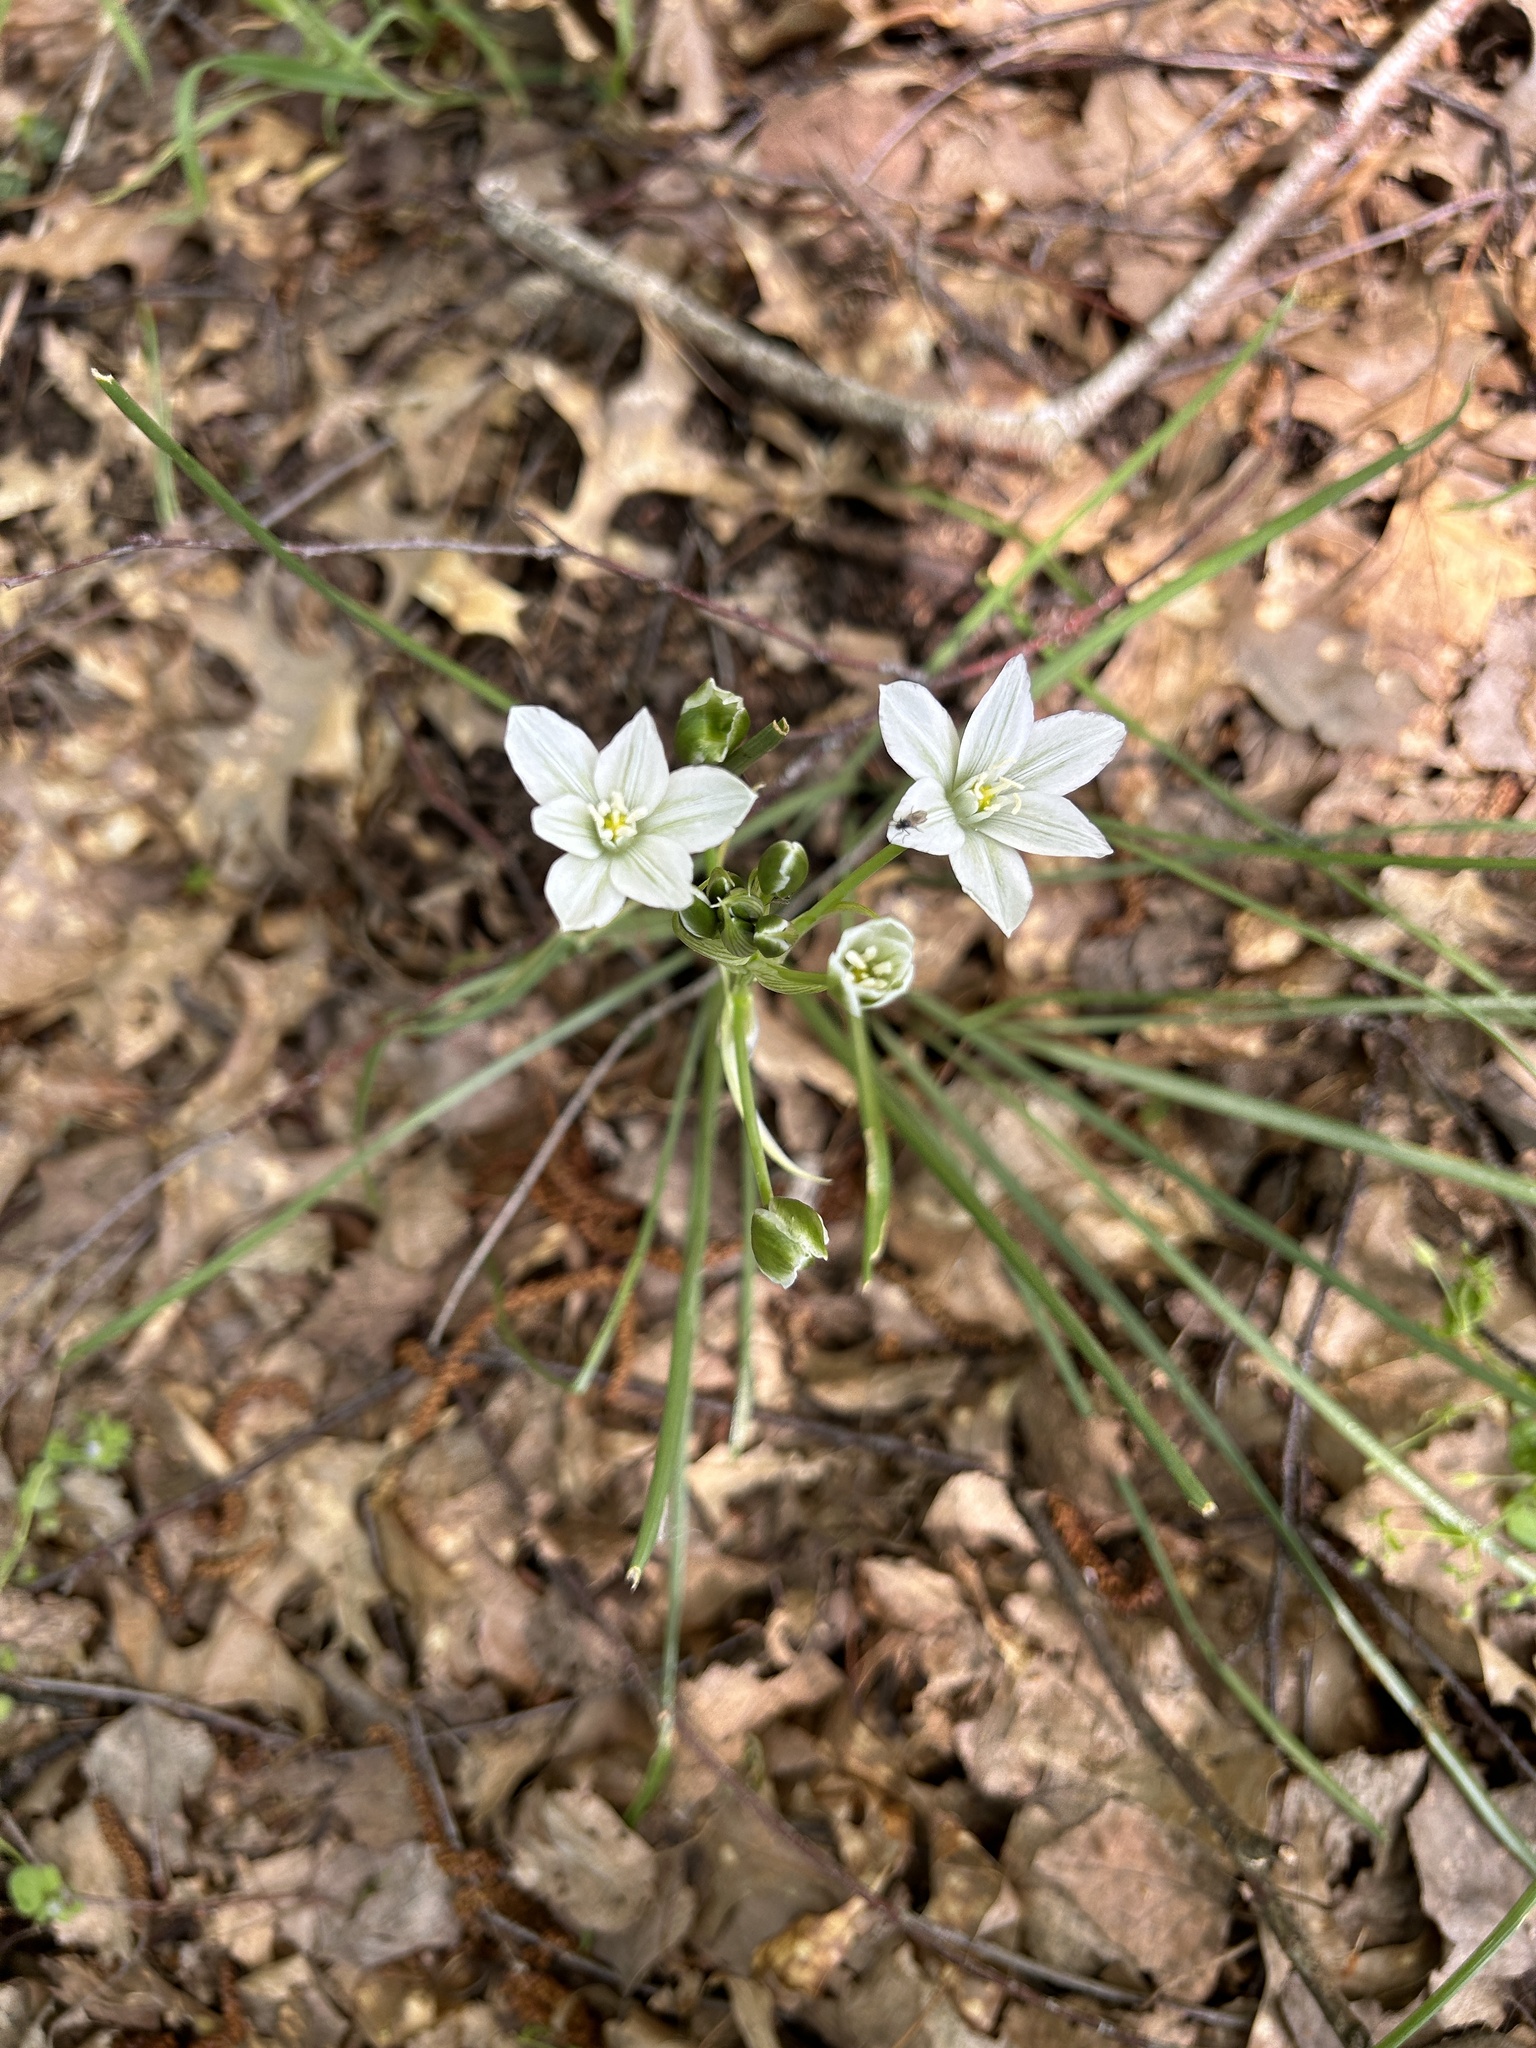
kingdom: Plantae
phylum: Tracheophyta
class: Liliopsida
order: Asparagales
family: Asparagaceae
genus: Ornithogalum
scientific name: Ornithogalum orthophyllum
